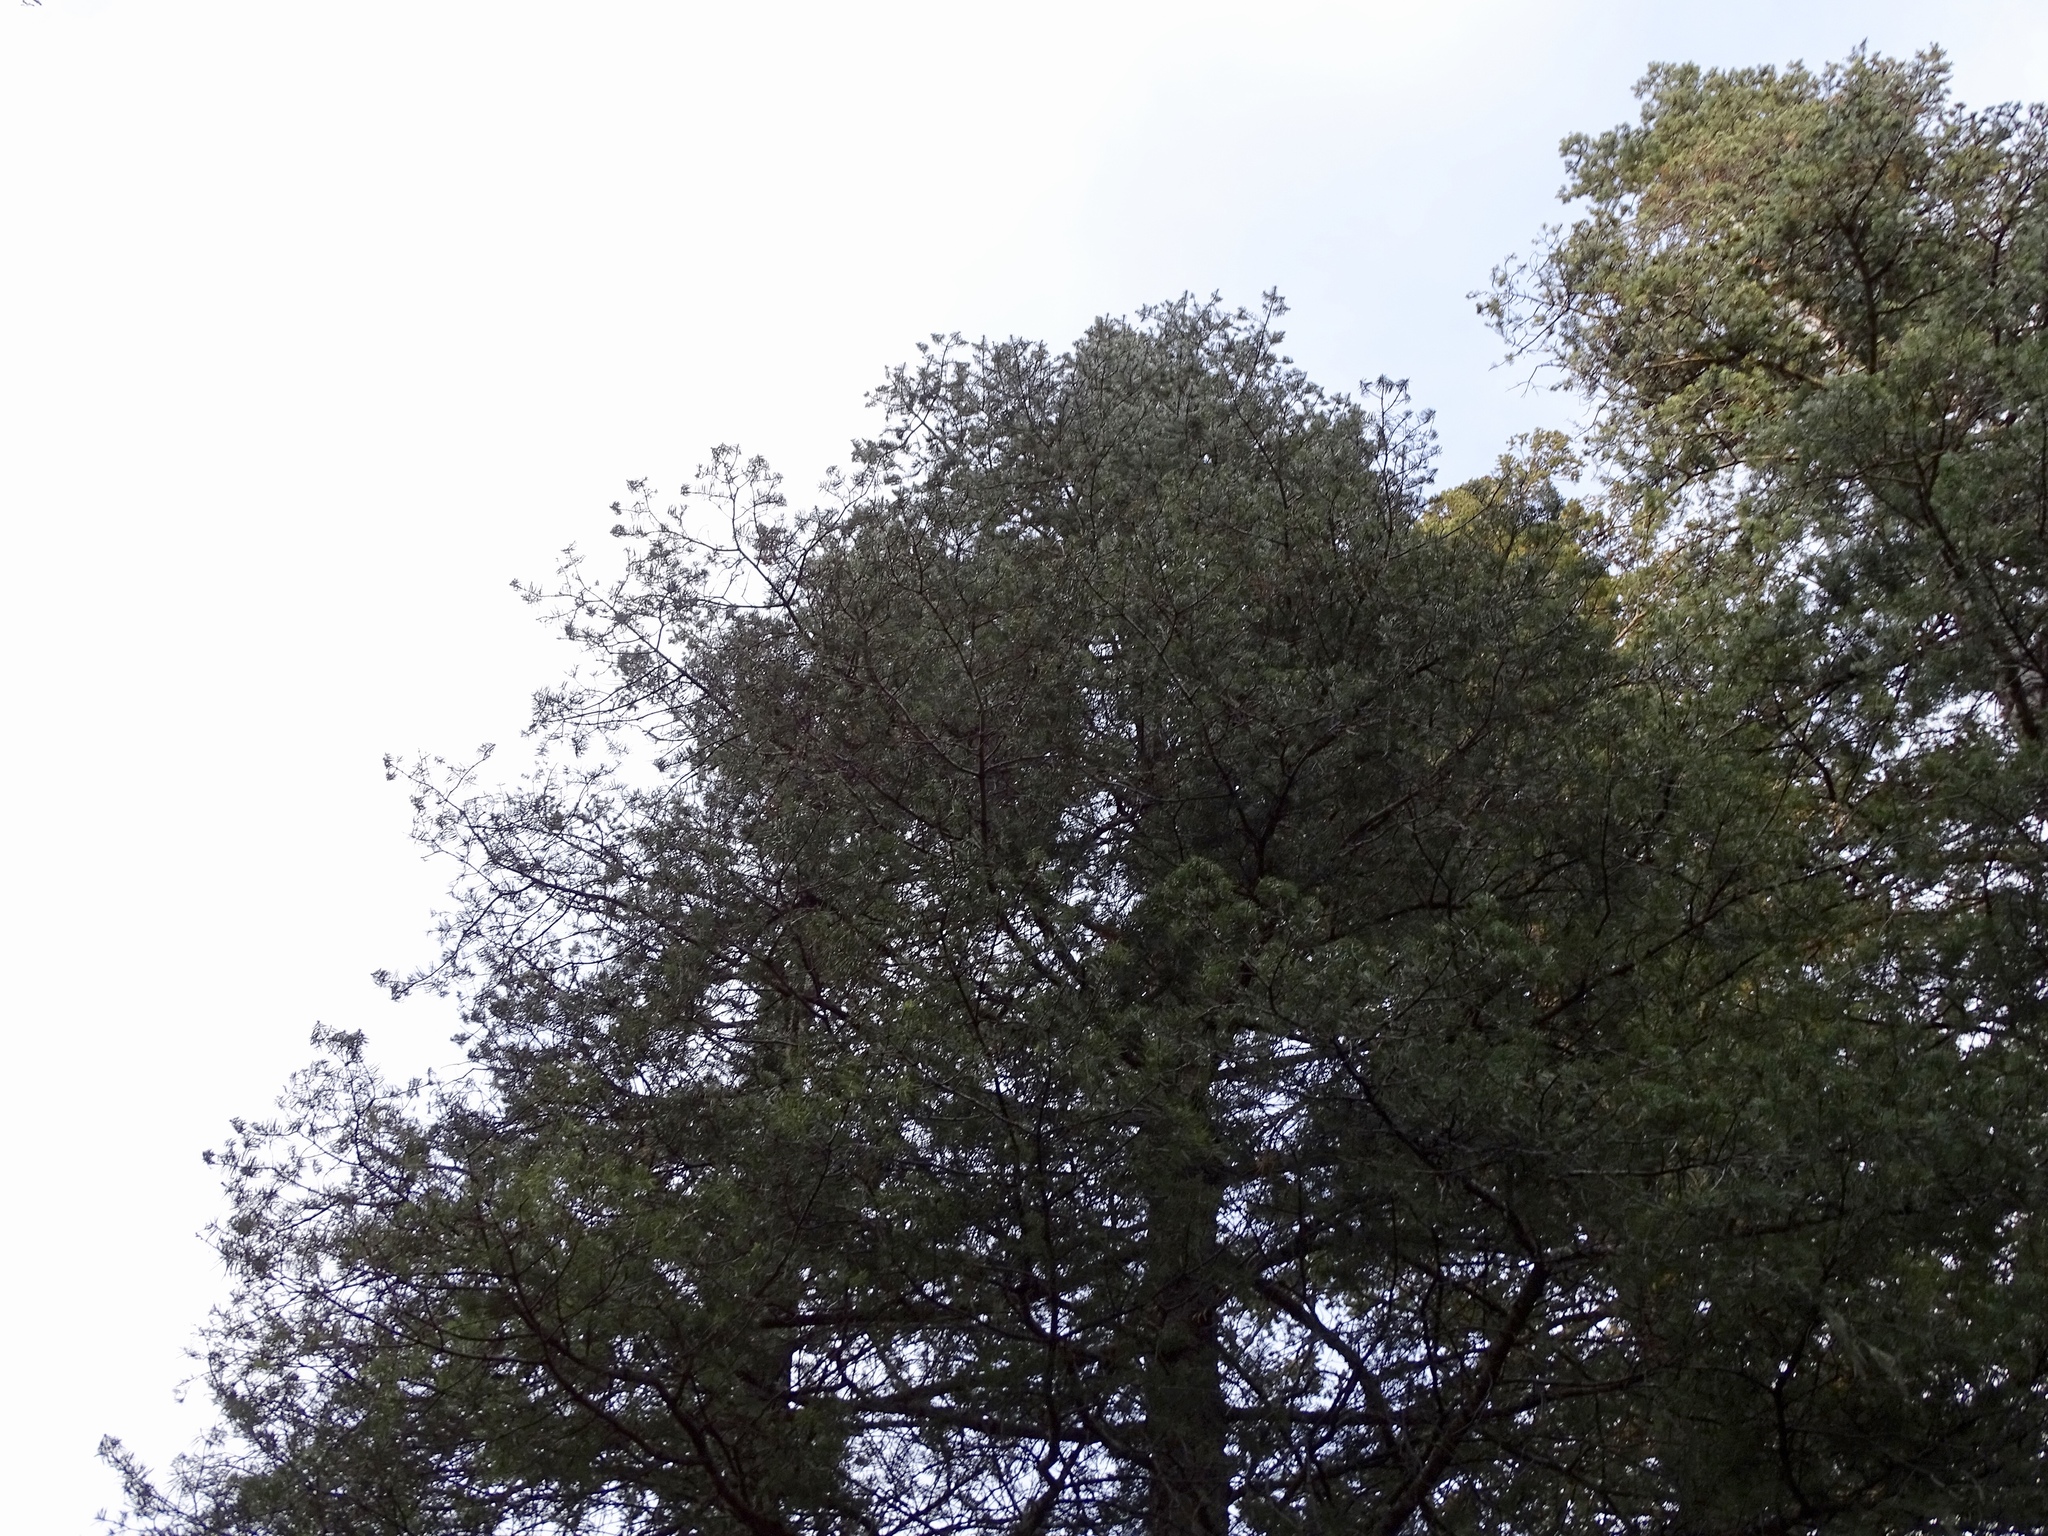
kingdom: Plantae
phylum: Tracheophyta
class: Pinopsida
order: Pinales
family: Pinaceae
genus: Abies
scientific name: Abies concolor
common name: Colorado fir
